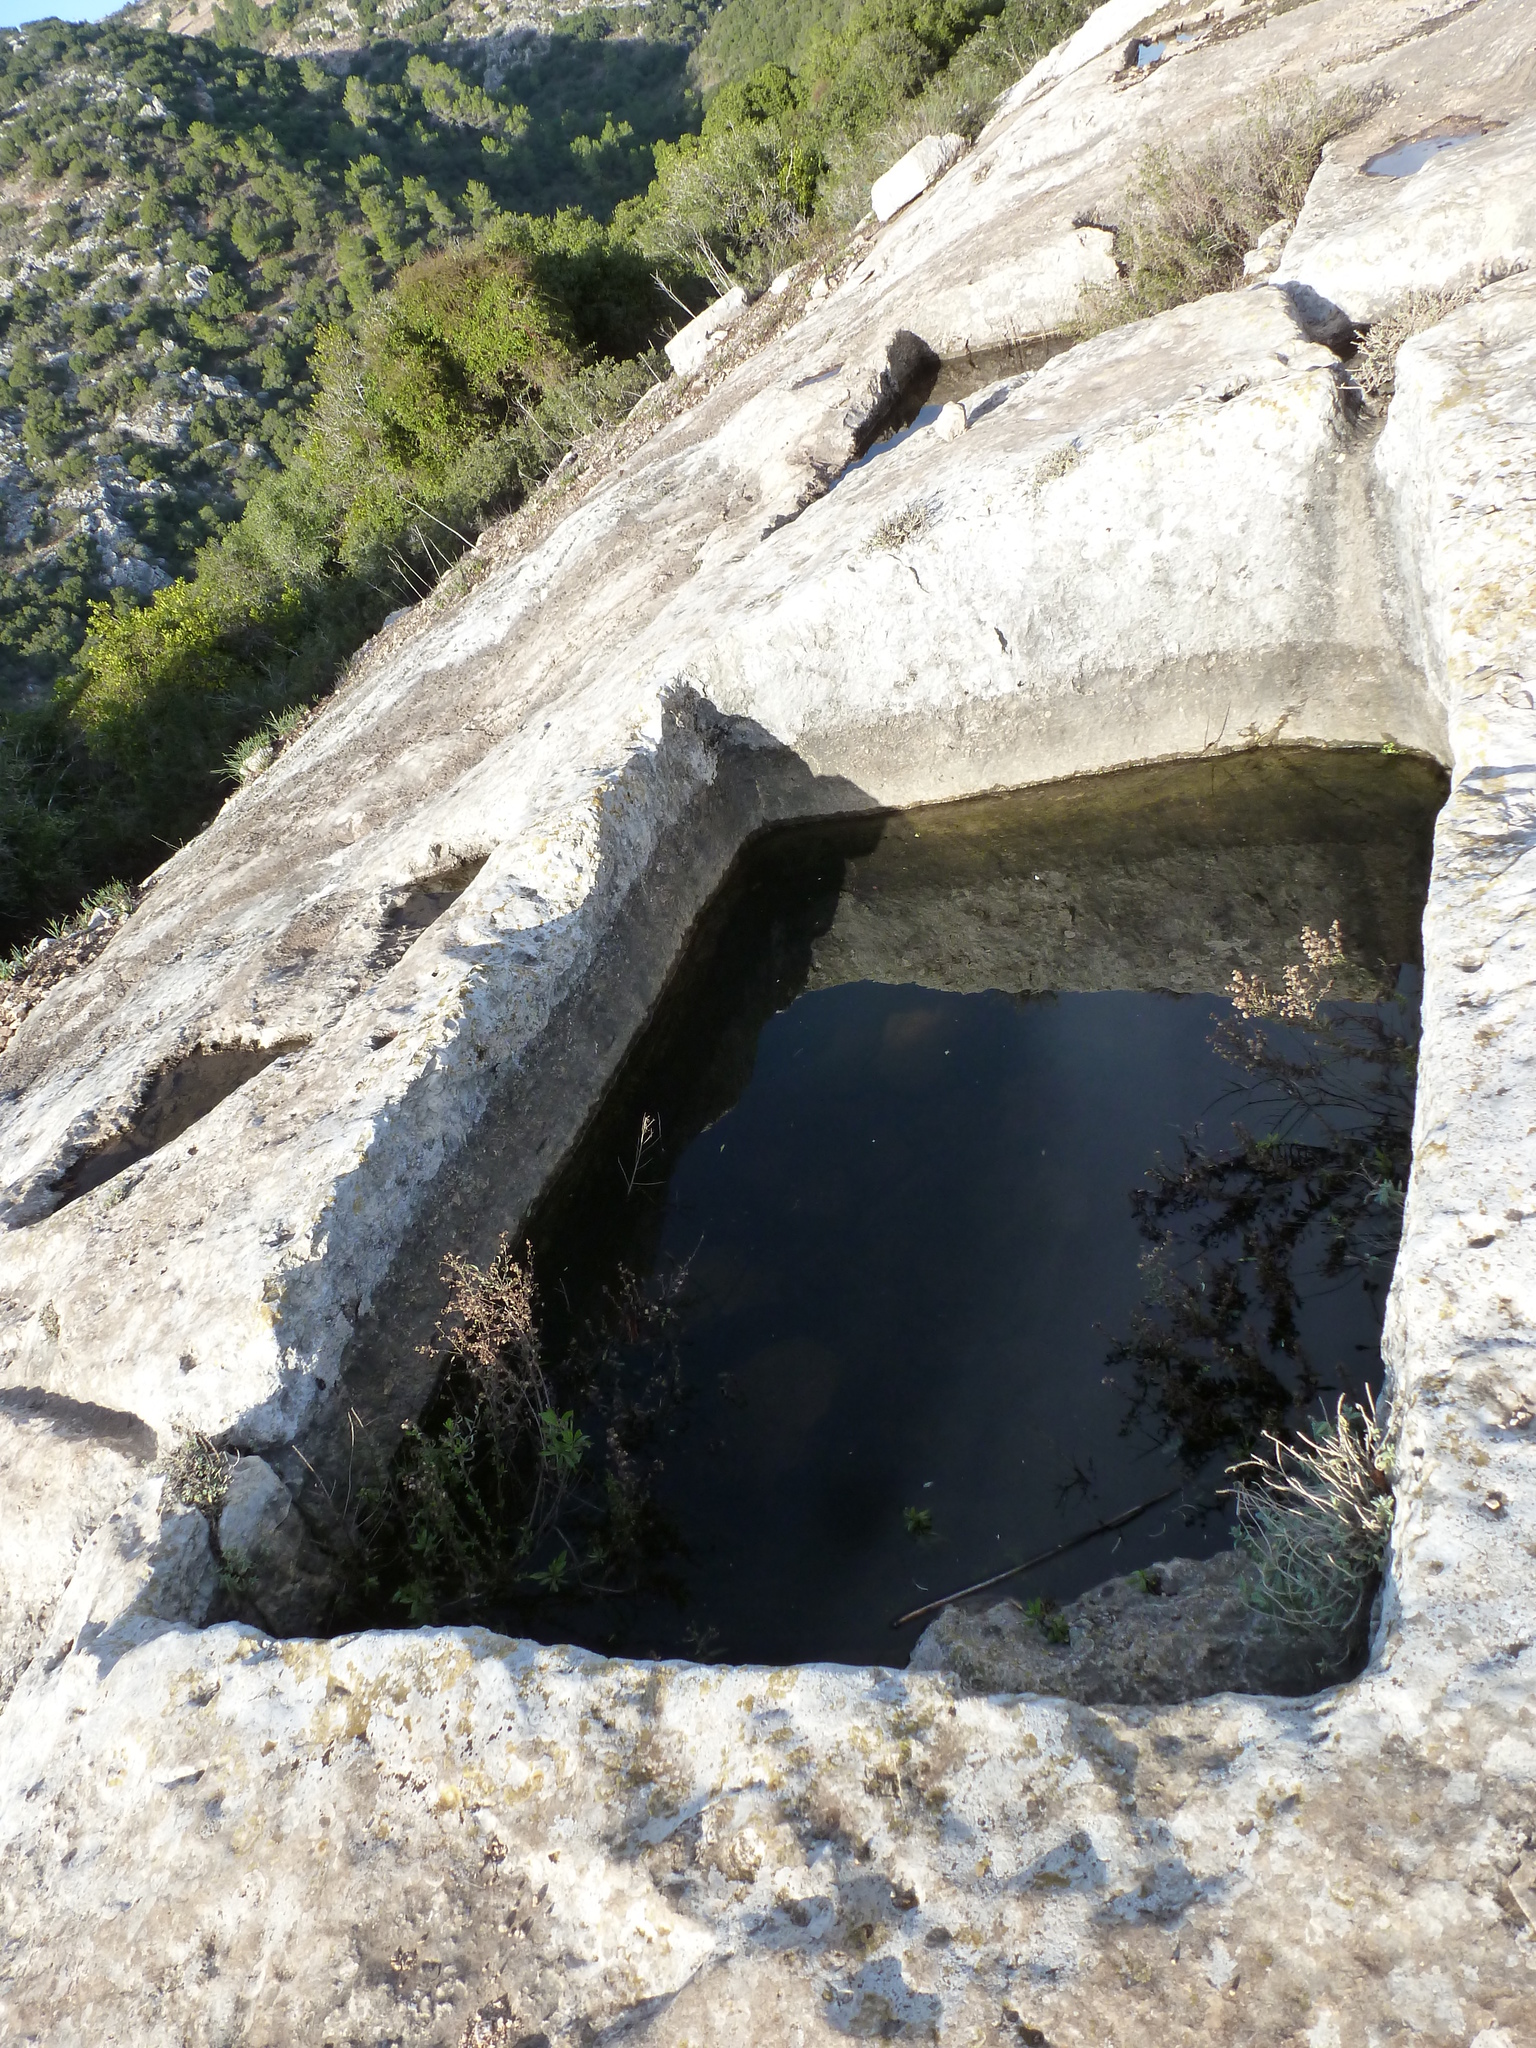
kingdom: Animalia
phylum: Chordata
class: Amphibia
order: Caudata
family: Salamandridae
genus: Salamandra
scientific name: Salamandra infraimmaculata
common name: Near-eastern fire salamander
